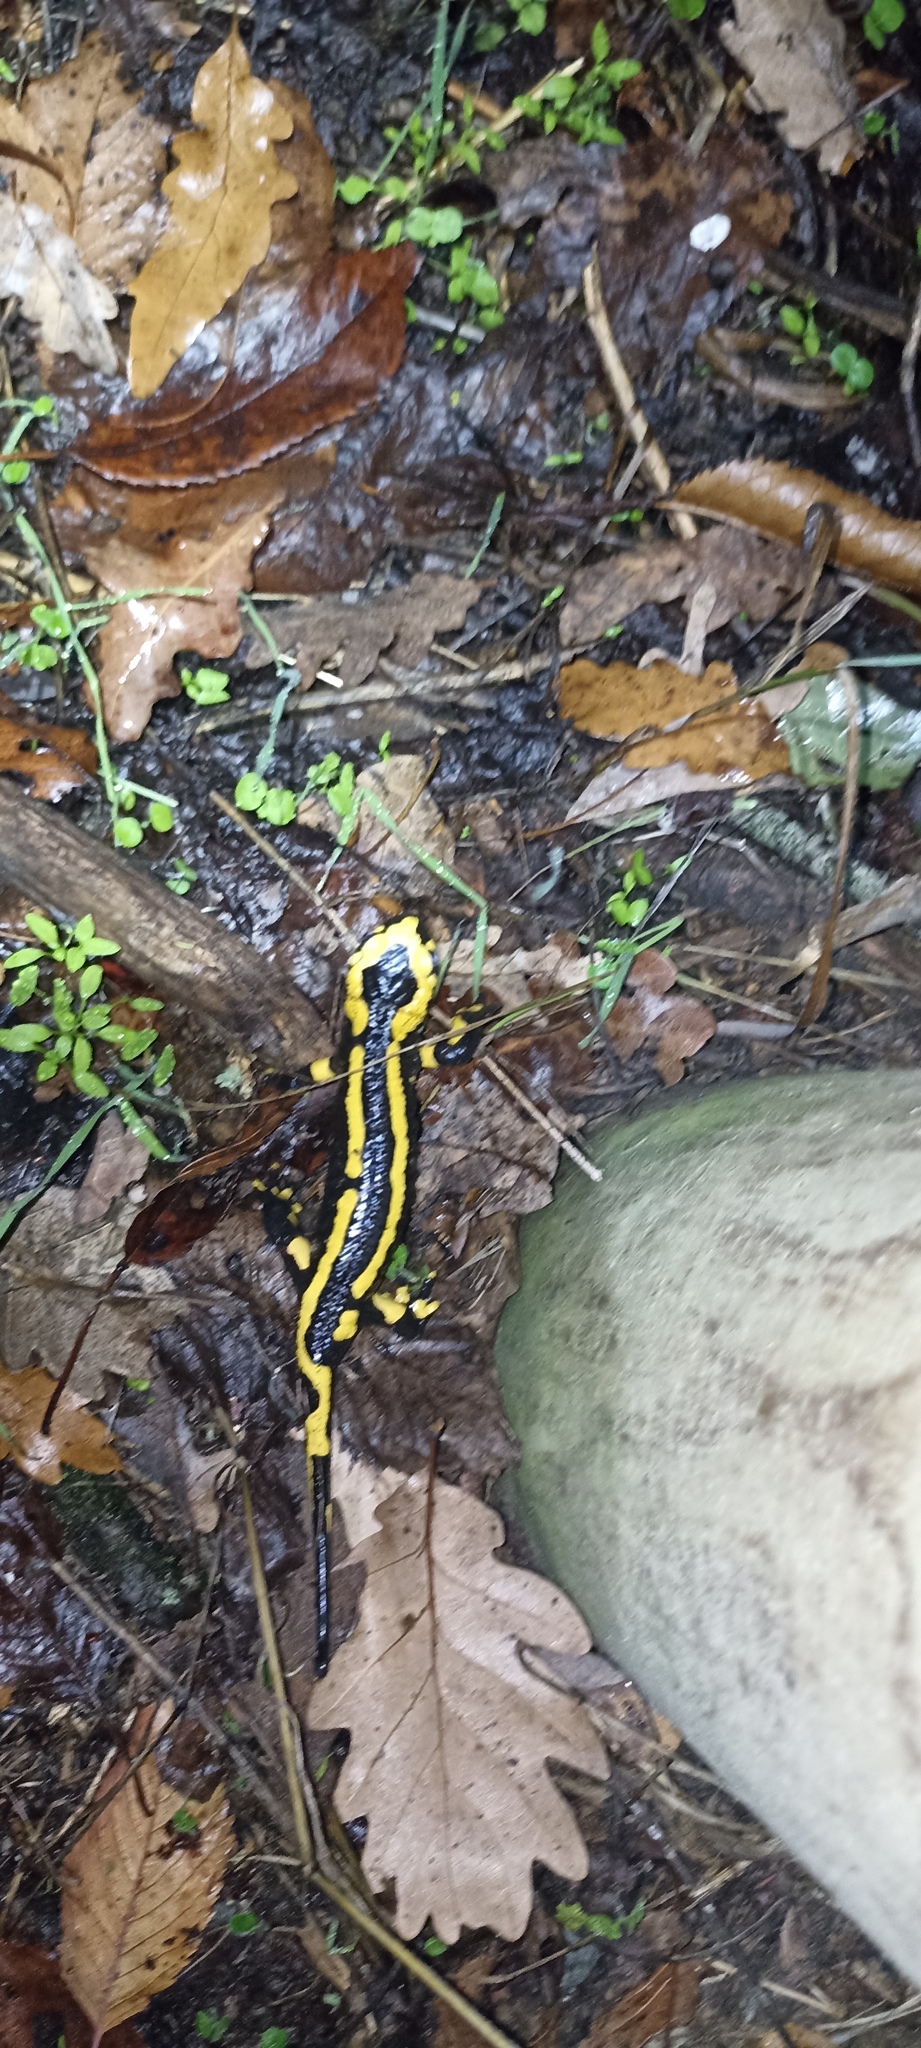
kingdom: Animalia
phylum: Chordata
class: Amphibia
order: Caudata
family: Salamandridae
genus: Salamandra
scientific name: Salamandra salamandra
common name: Fire salamander
